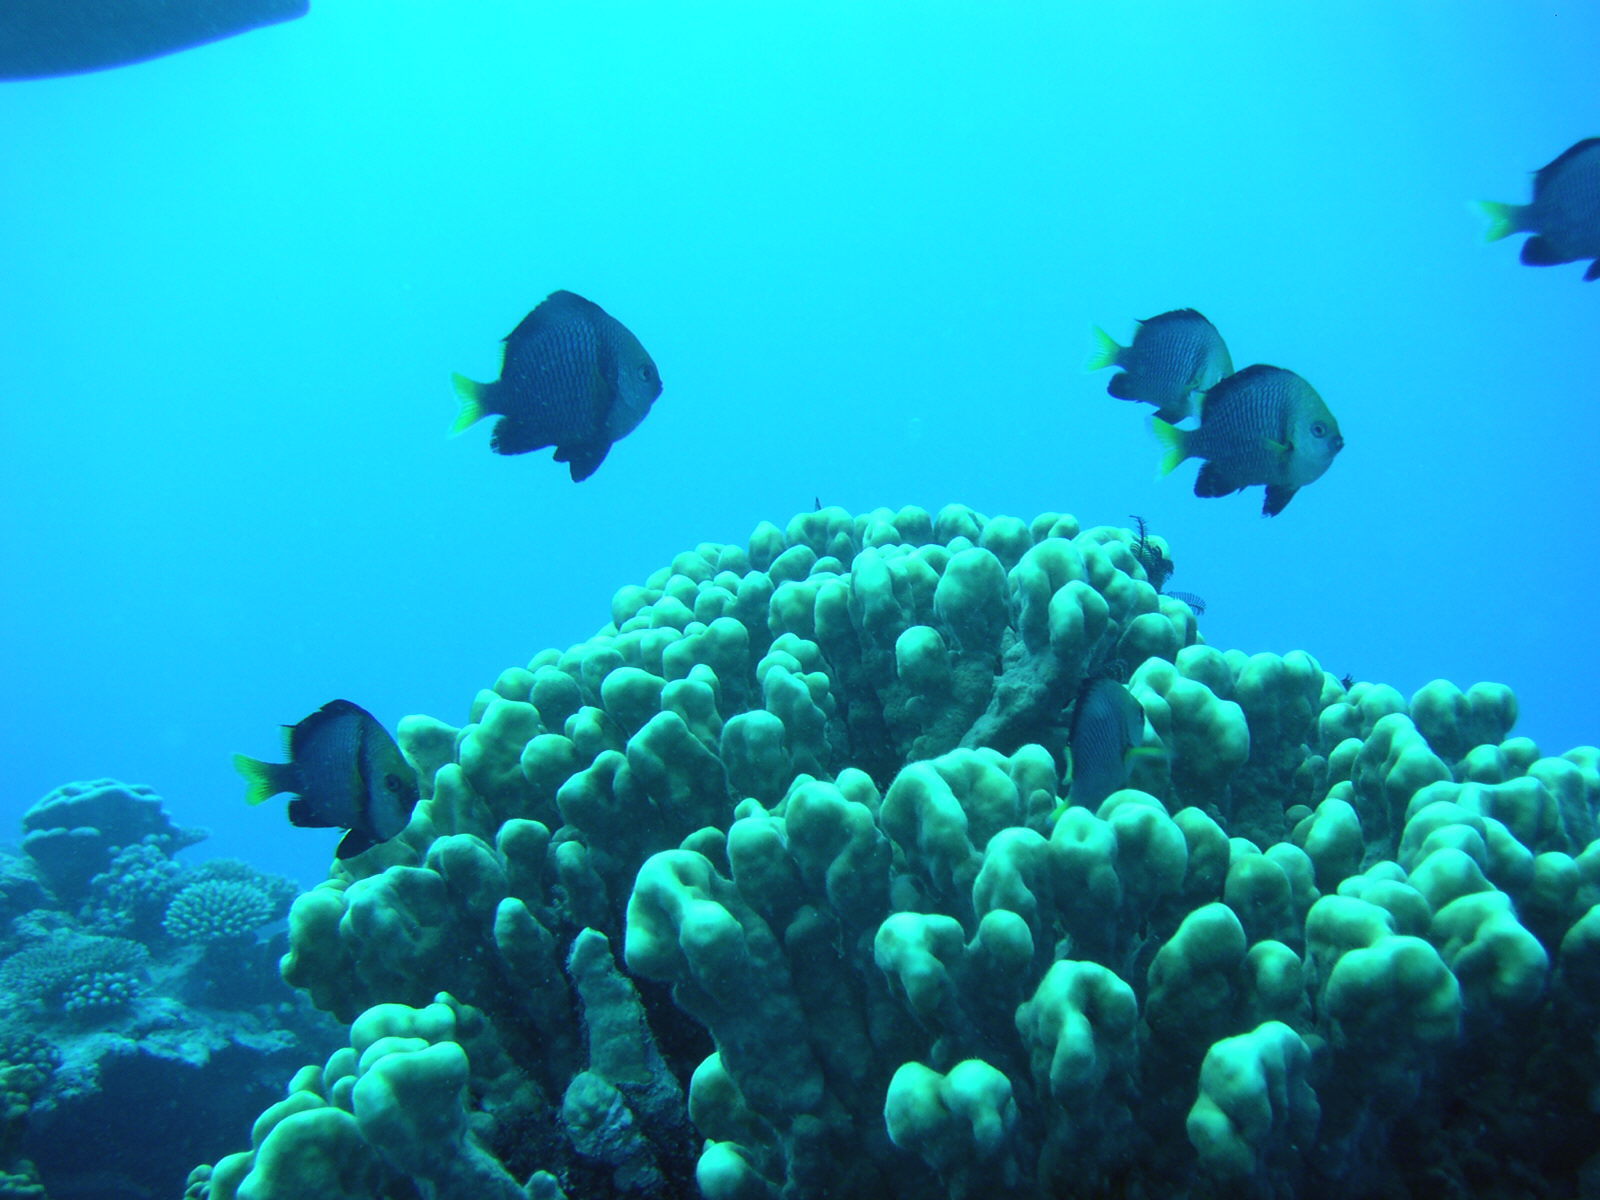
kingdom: Animalia
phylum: Chordata
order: Perciformes
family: Pomacentridae
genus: Dascyllus
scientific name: Dascyllus flavicaudus
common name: Yellow-tailed dascyllus
